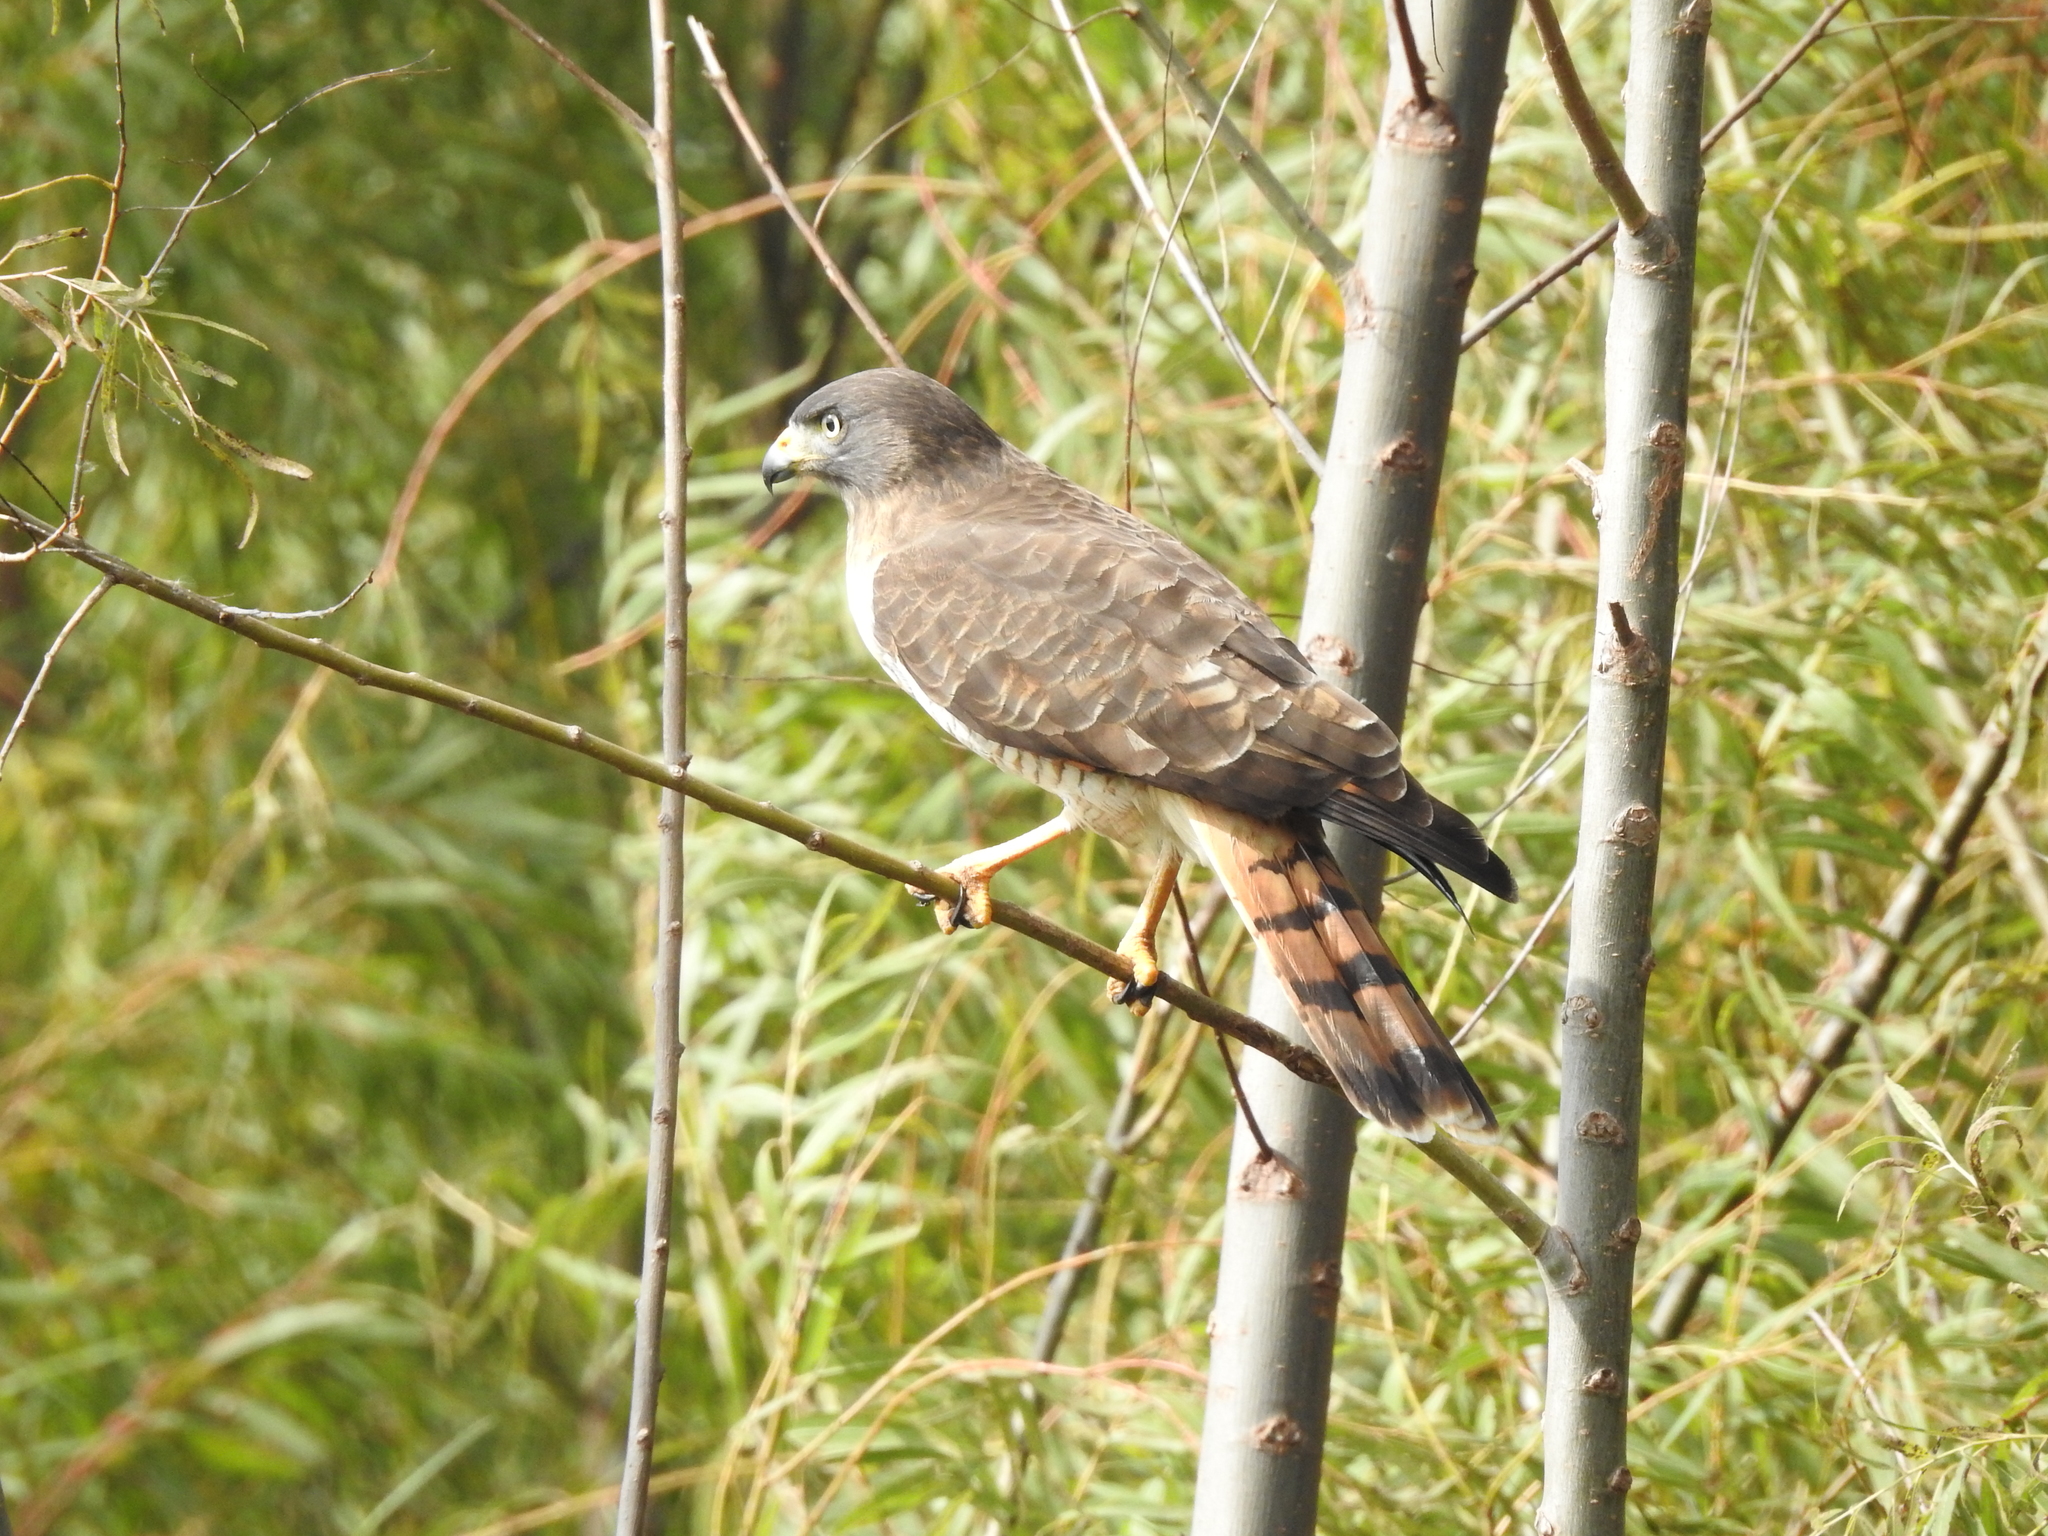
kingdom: Animalia
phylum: Chordata
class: Aves
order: Accipitriformes
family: Accipitridae
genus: Rupornis
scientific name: Rupornis magnirostris
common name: Roadside hawk
